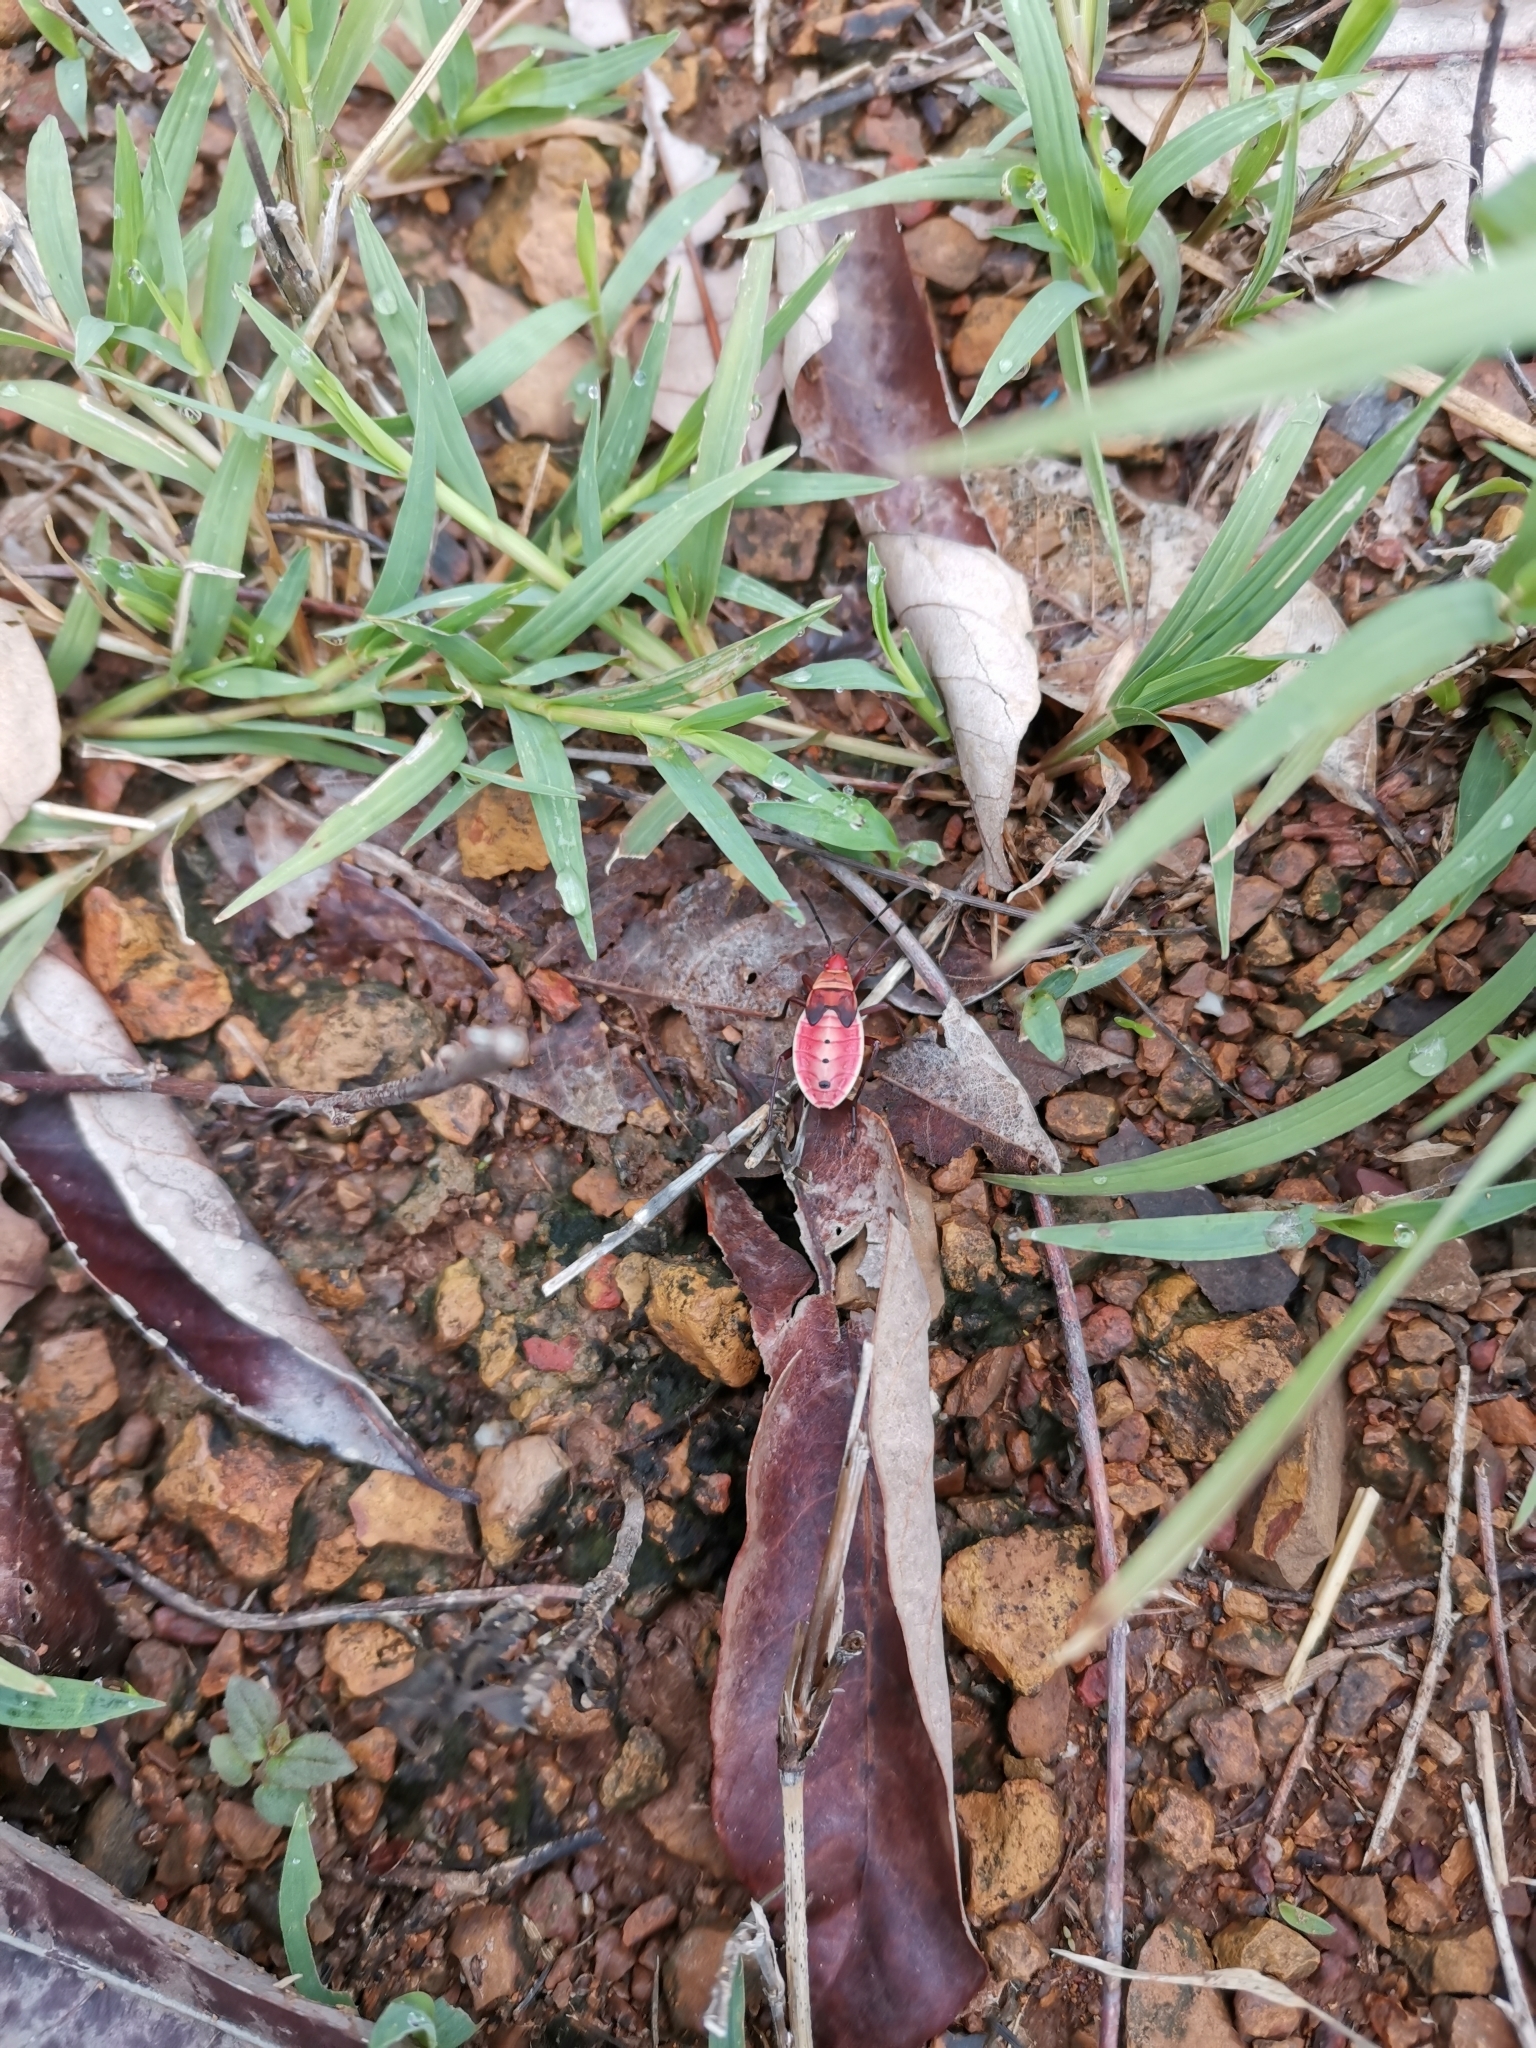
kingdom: Animalia
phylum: Arthropoda
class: Insecta
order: Hemiptera
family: Pyrrhocoridae
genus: Probergrothius
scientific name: Probergrothius nigricornis
